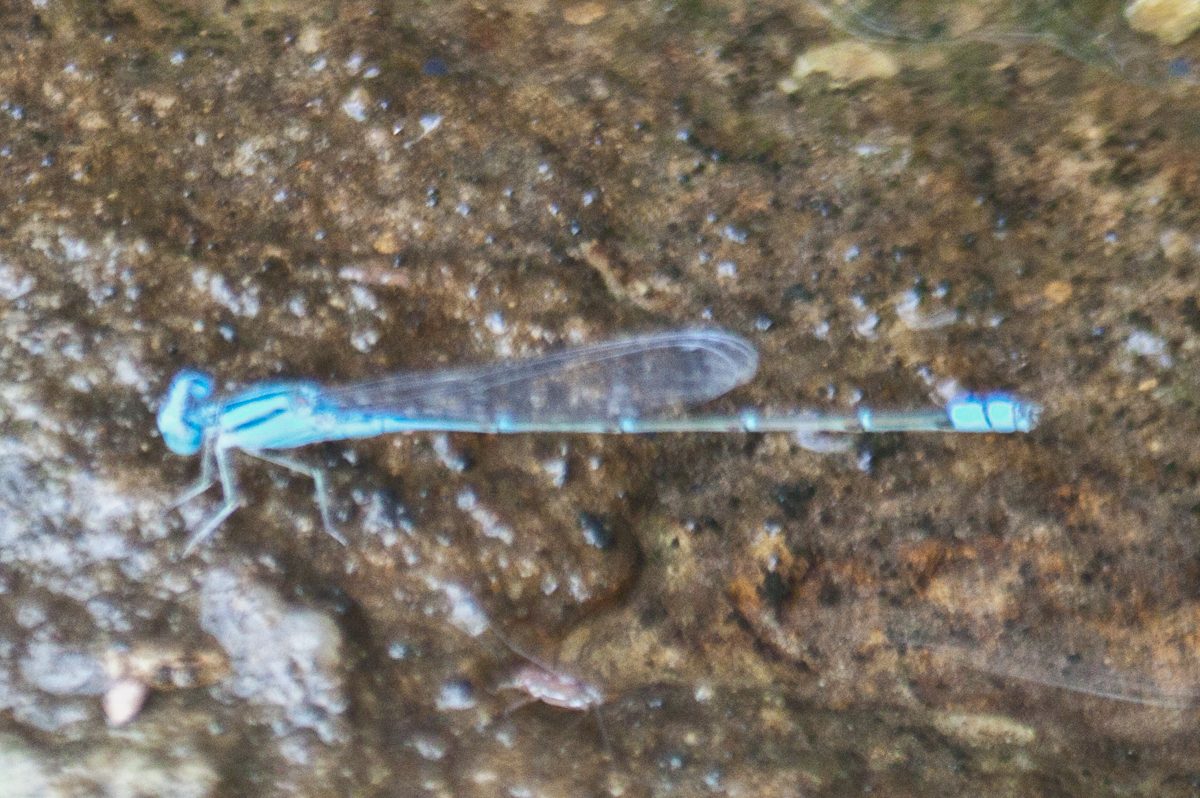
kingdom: Animalia
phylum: Arthropoda
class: Insecta
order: Odonata
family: Coenagrionidae
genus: Pseudagrion
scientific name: Pseudagrion australasiae
